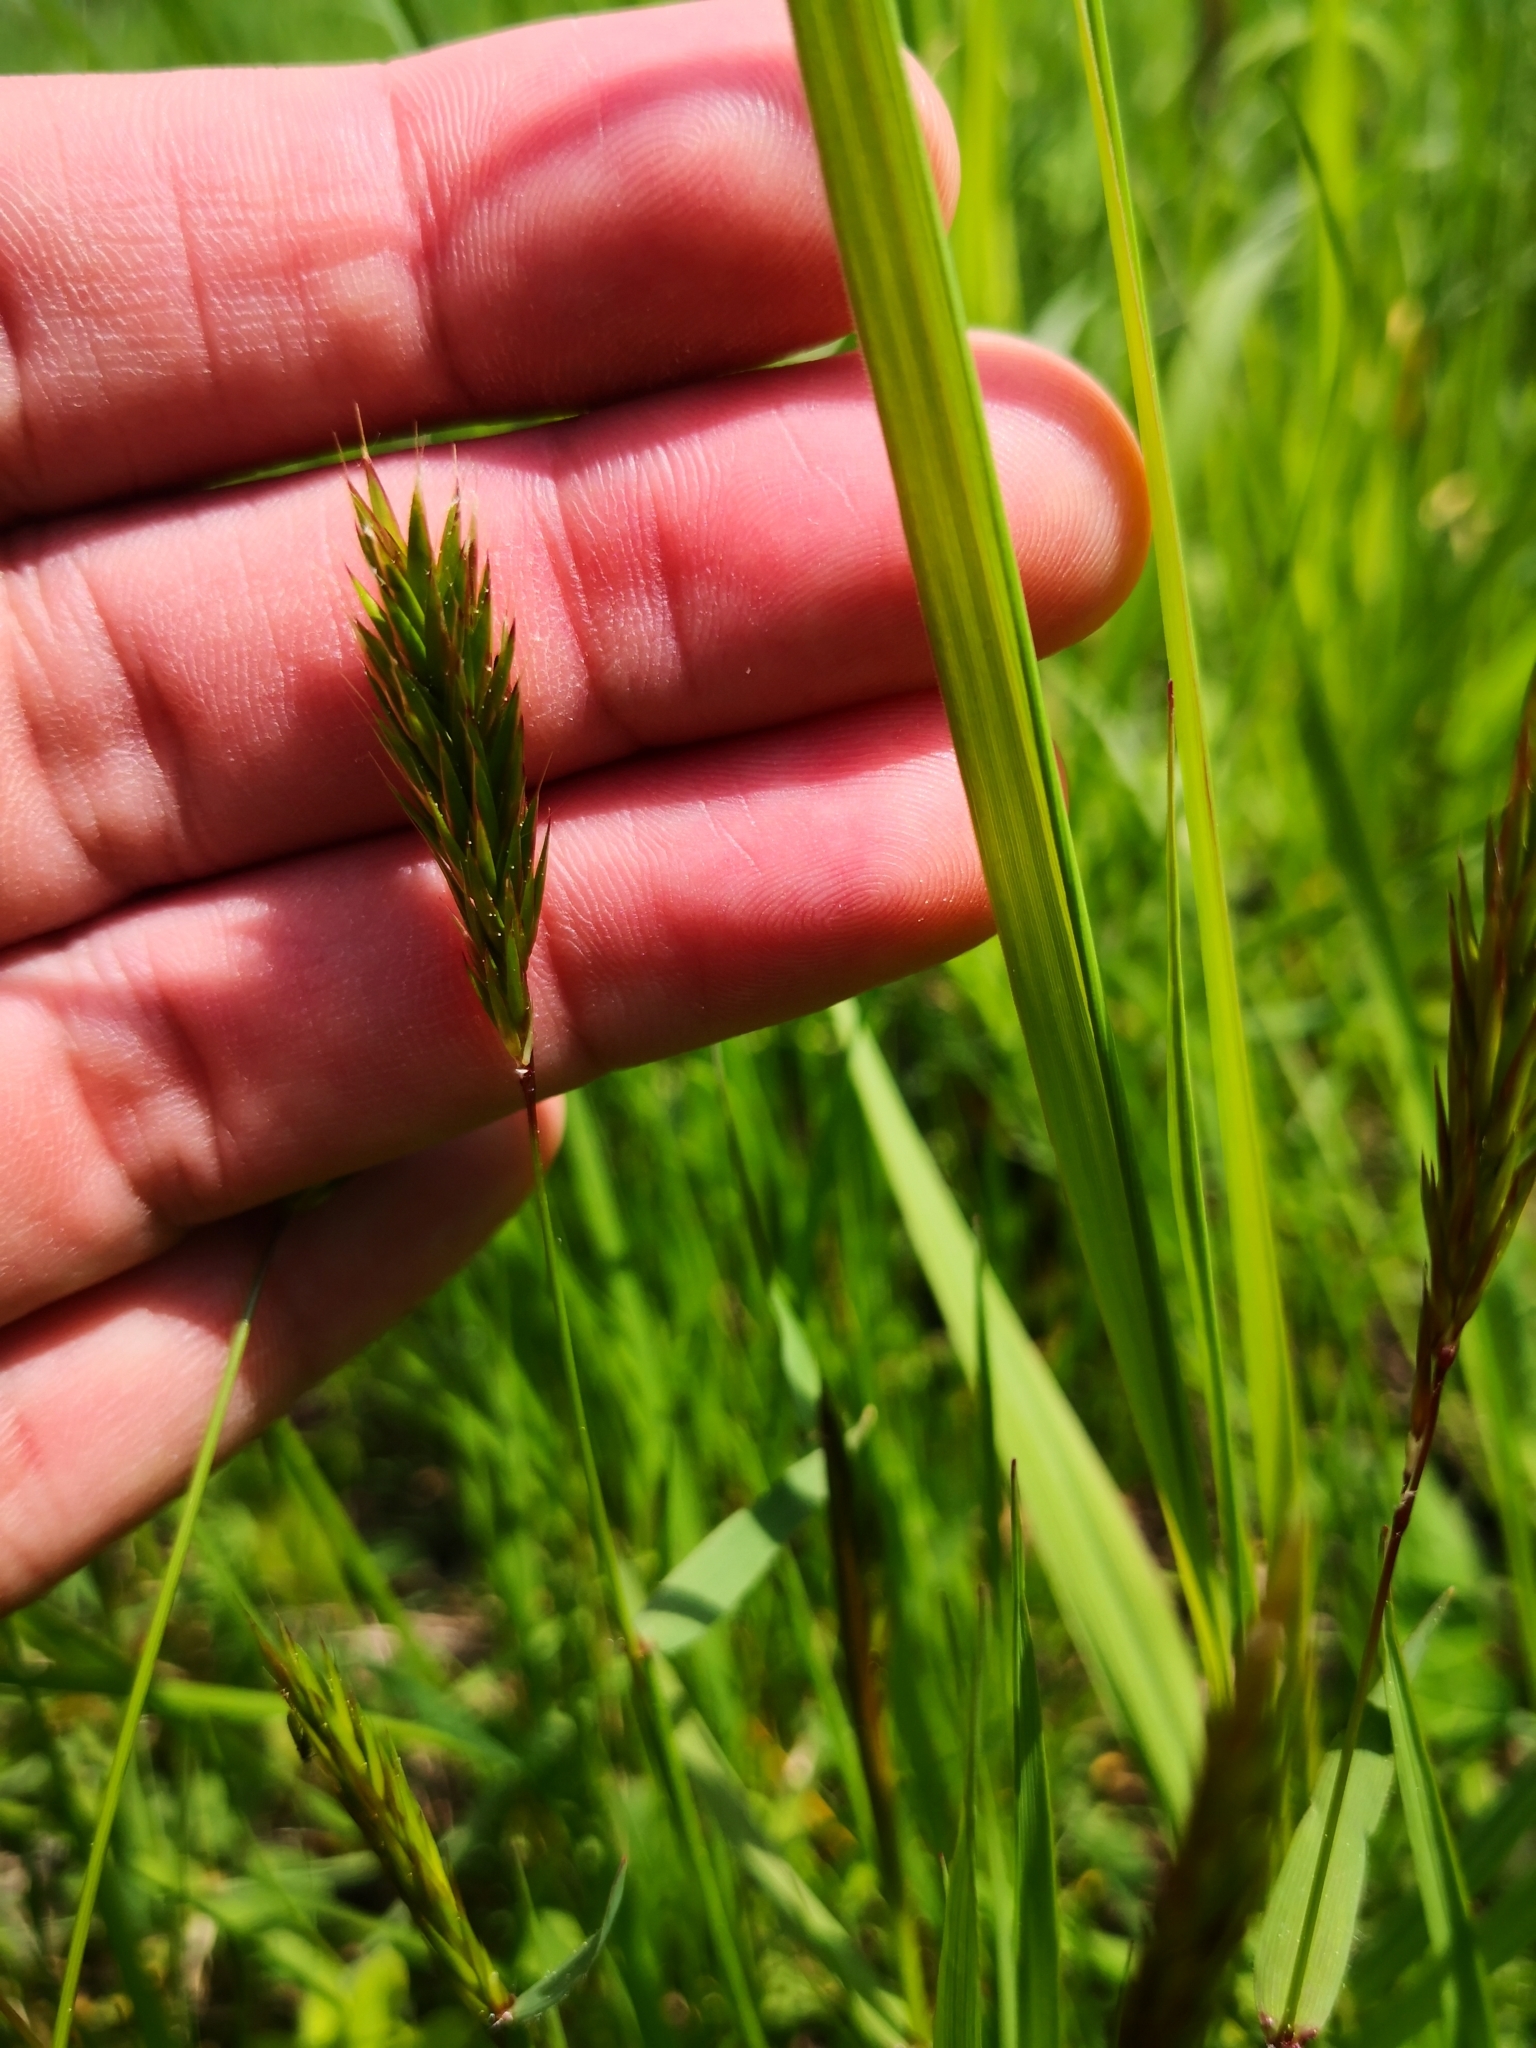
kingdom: Plantae
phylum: Tracheophyta
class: Liliopsida
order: Poales
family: Poaceae
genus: Anthoxanthum
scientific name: Anthoxanthum odoratum
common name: Sweet vernalgrass
